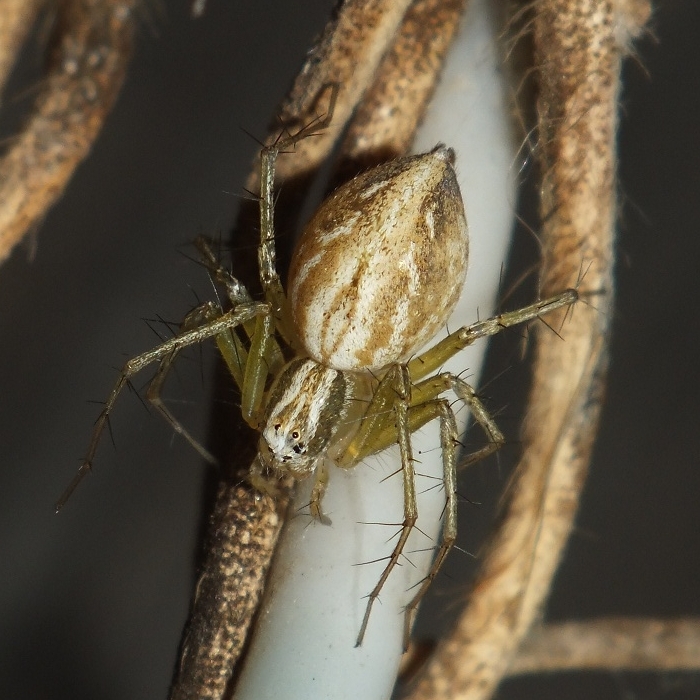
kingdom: Animalia
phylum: Arthropoda
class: Arachnida
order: Araneae
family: Oxyopidae
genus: Oxyopes
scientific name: Oxyopes lineatus
